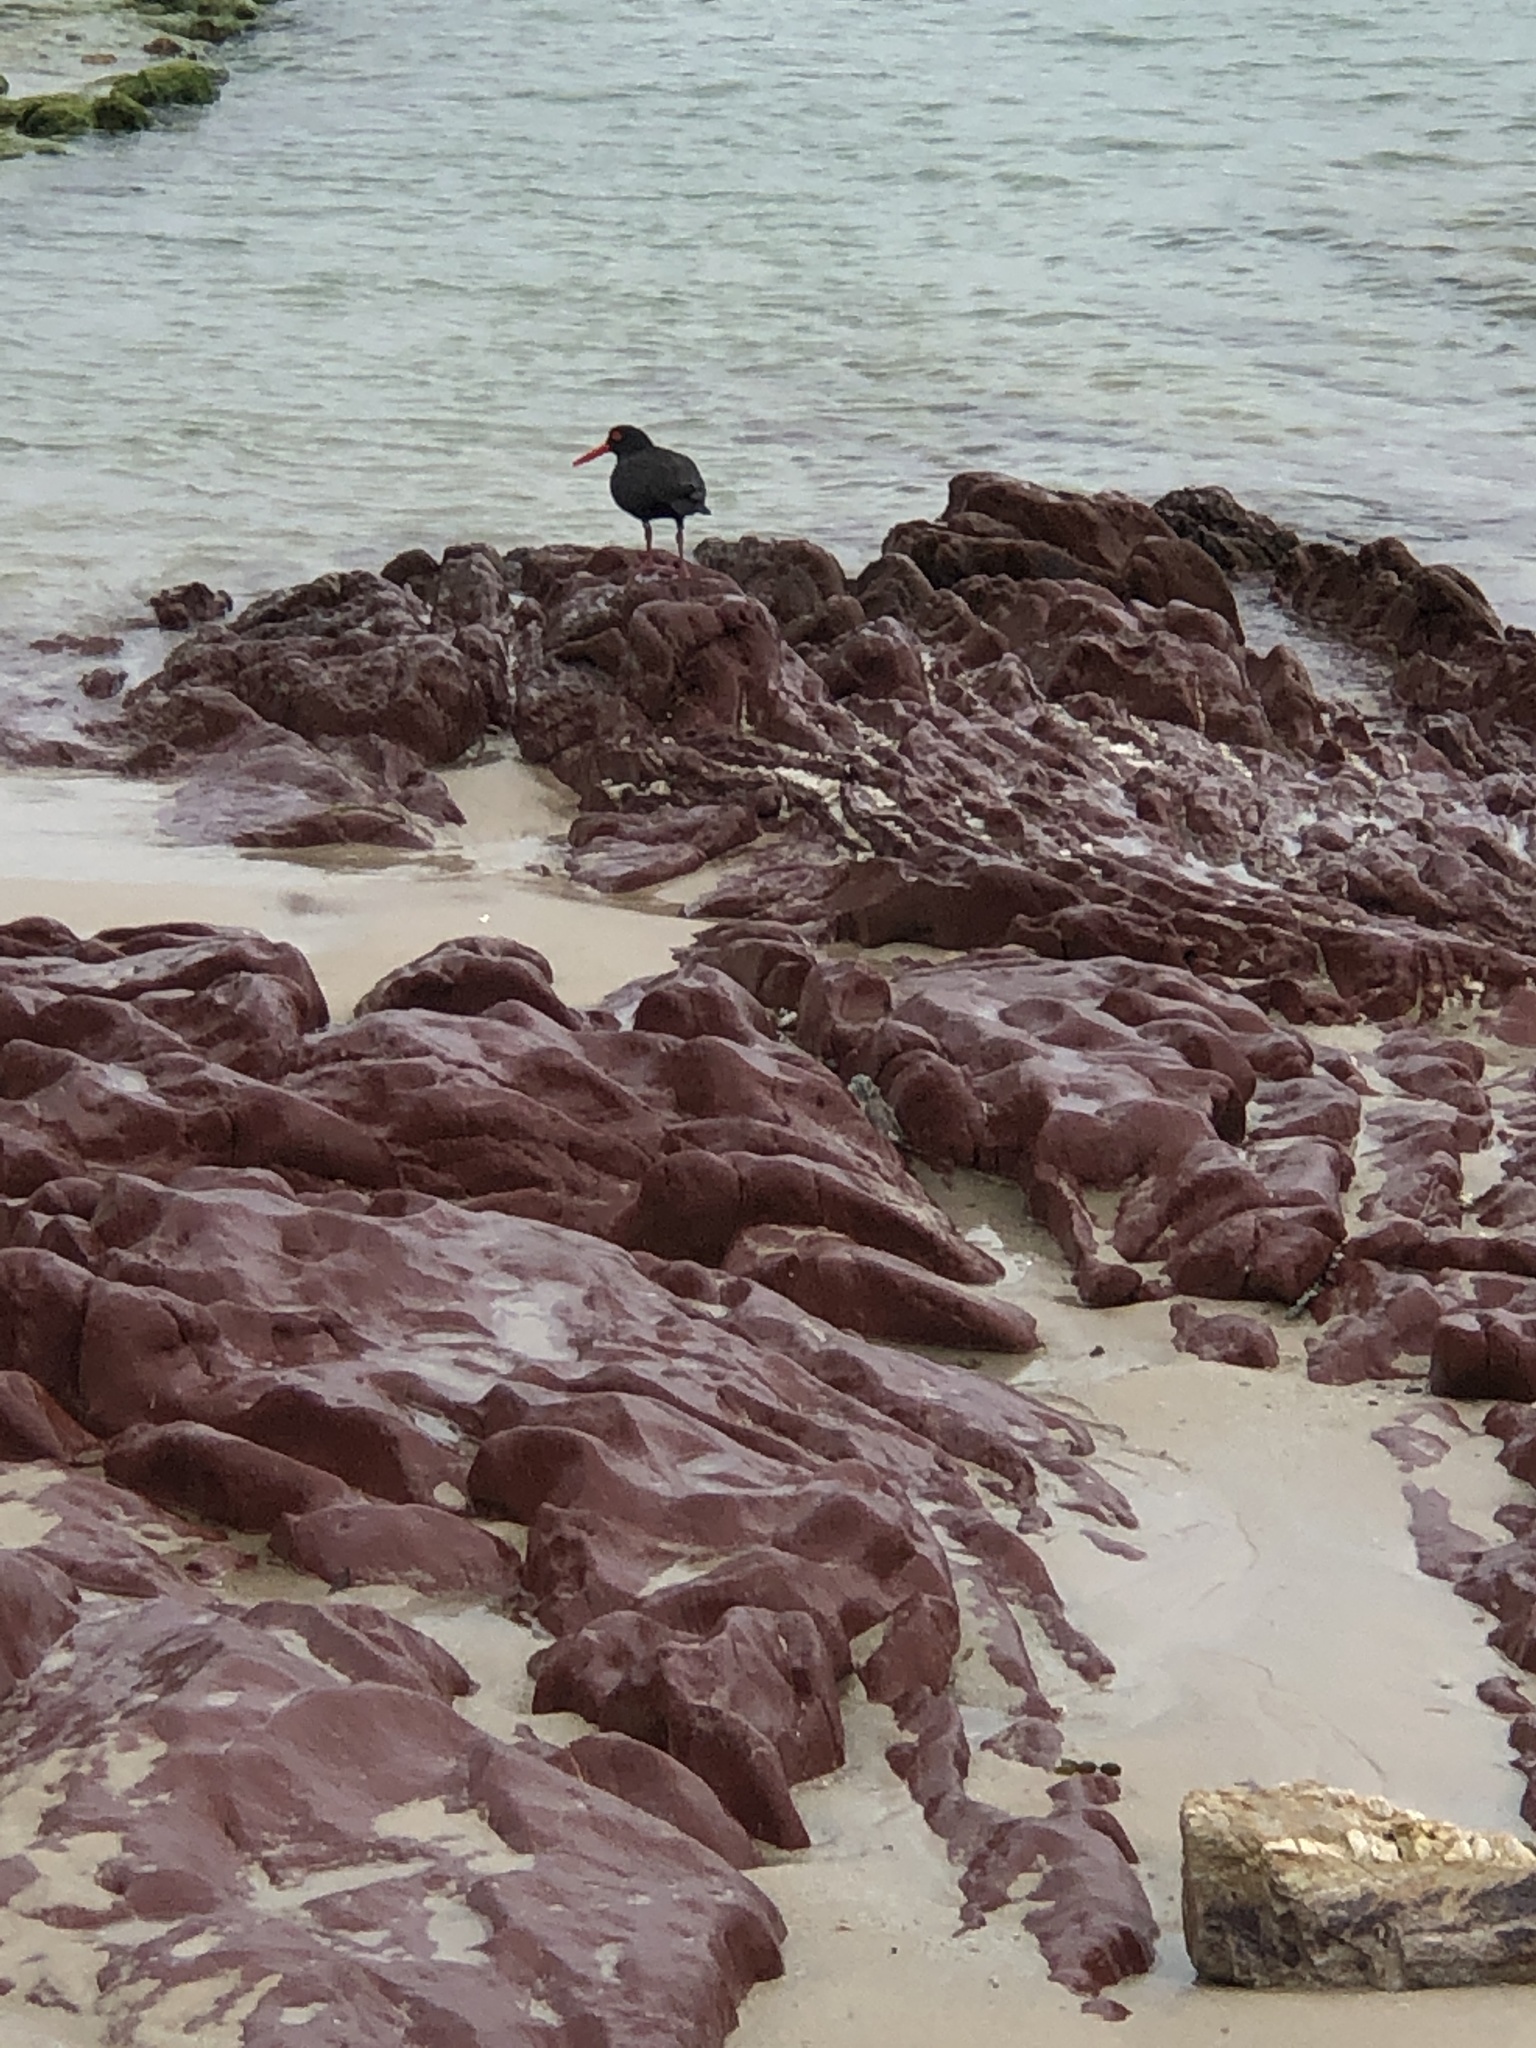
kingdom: Animalia
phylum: Chordata
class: Aves
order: Charadriiformes
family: Haematopodidae
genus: Haematopus
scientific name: Haematopus fuliginosus
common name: Sooty oystercatcher
